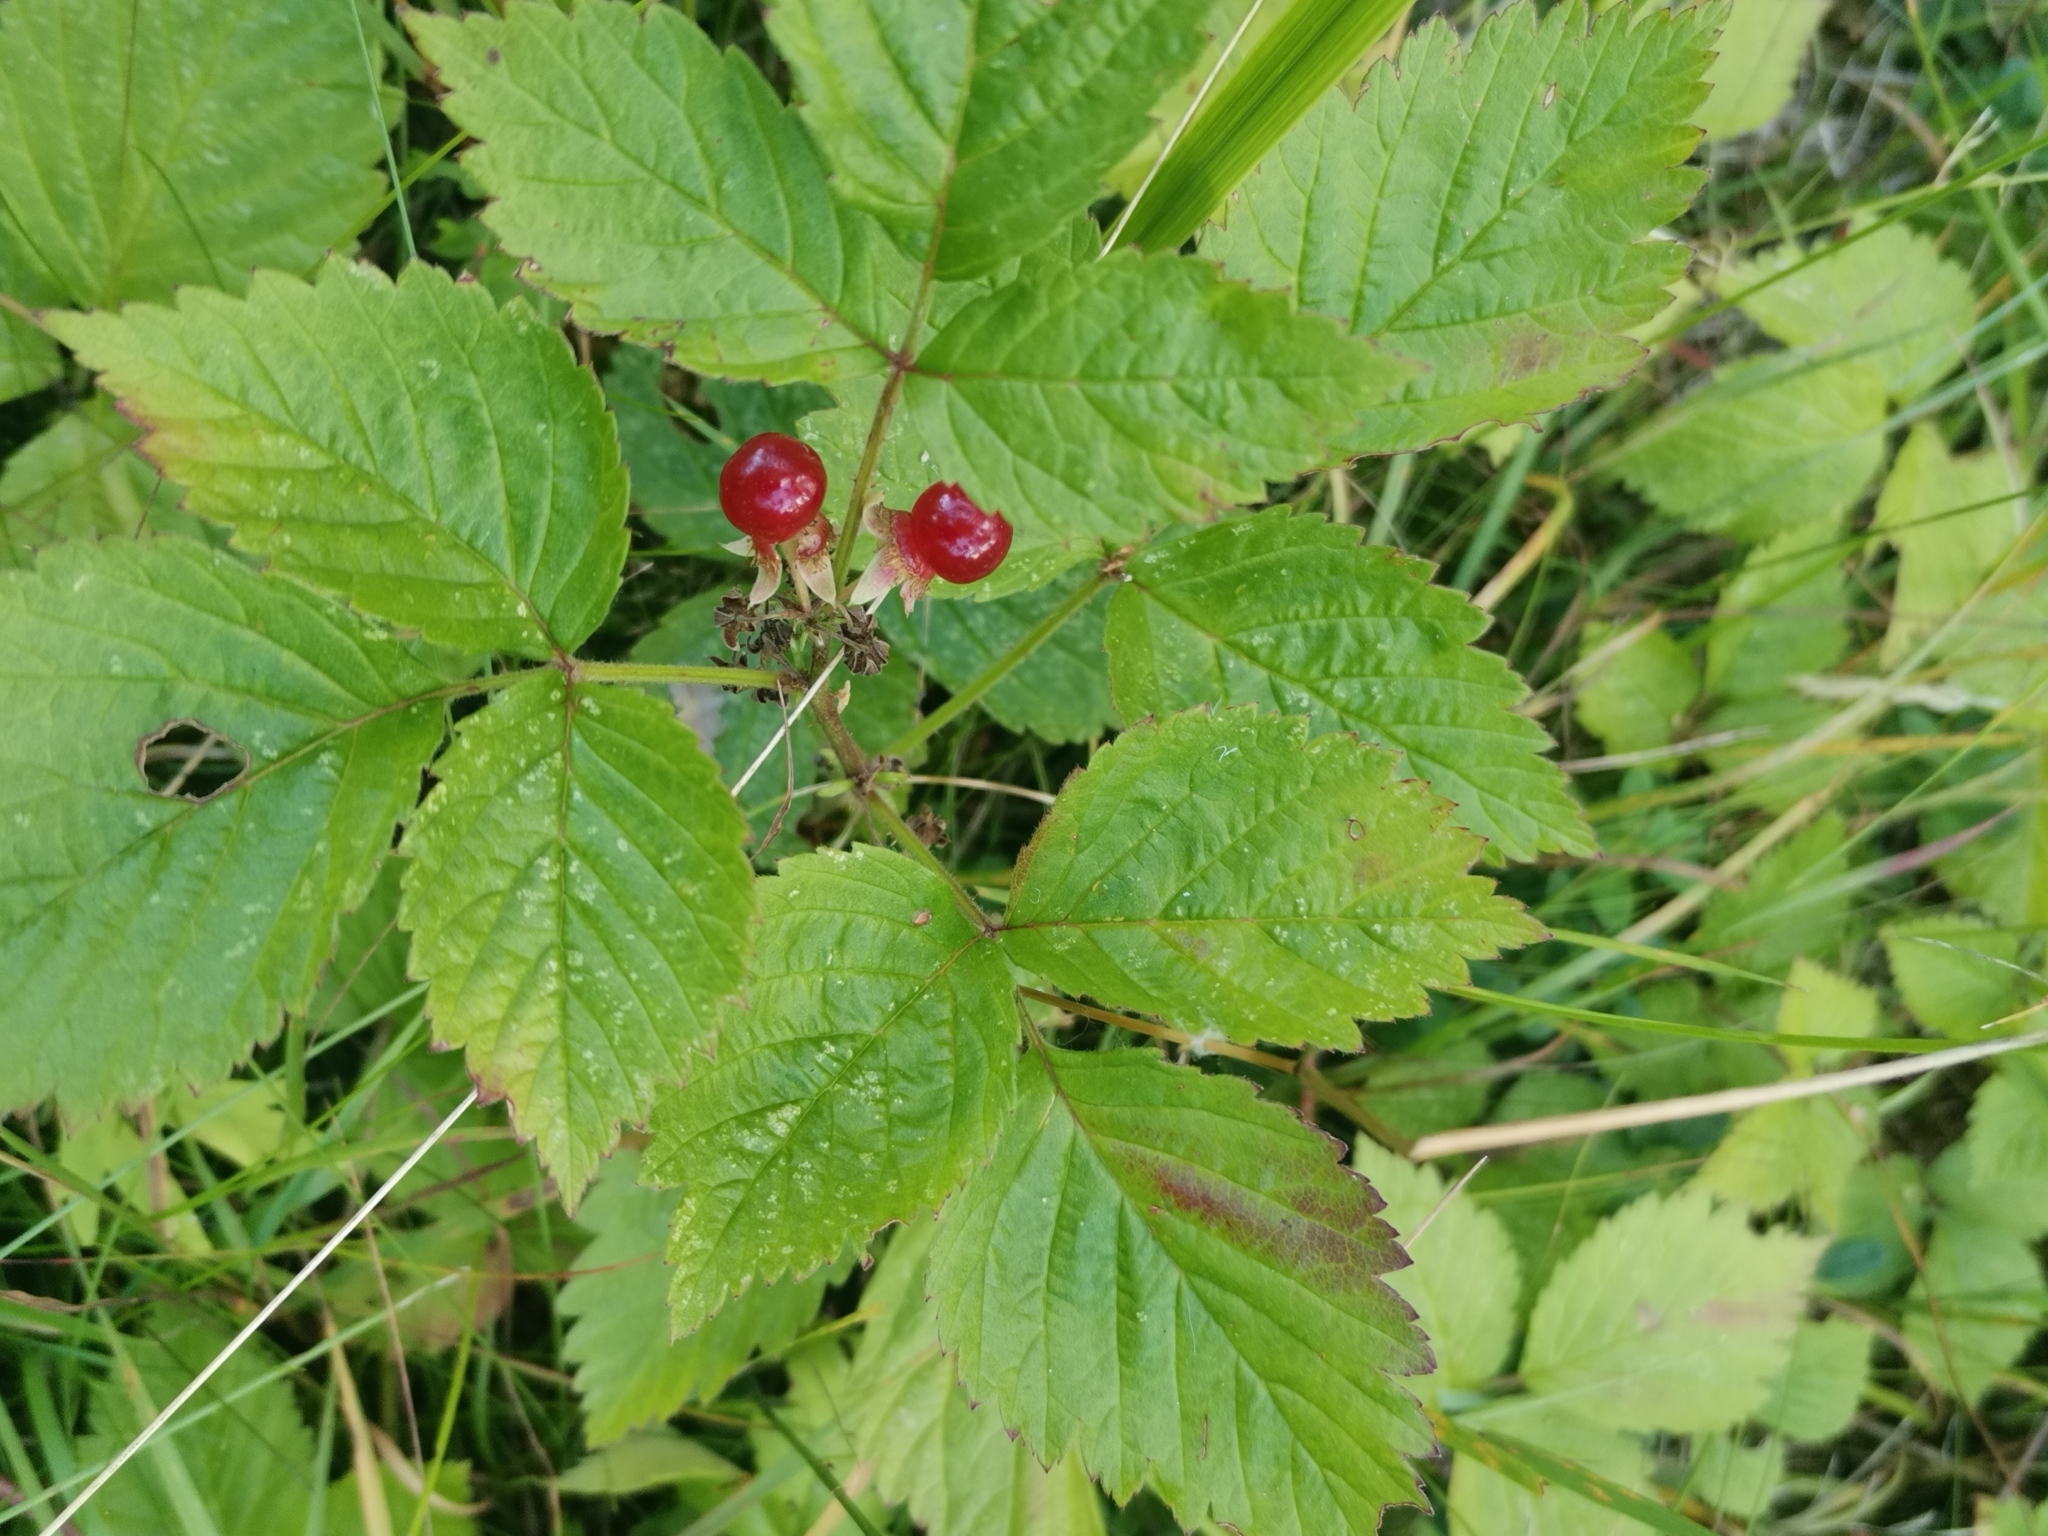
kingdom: Plantae
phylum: Tracheophyta
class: Magnoliopsida
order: Rosales
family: Rosaceae
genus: Rubus
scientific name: Rubus saxatilis
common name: Stone bramble
